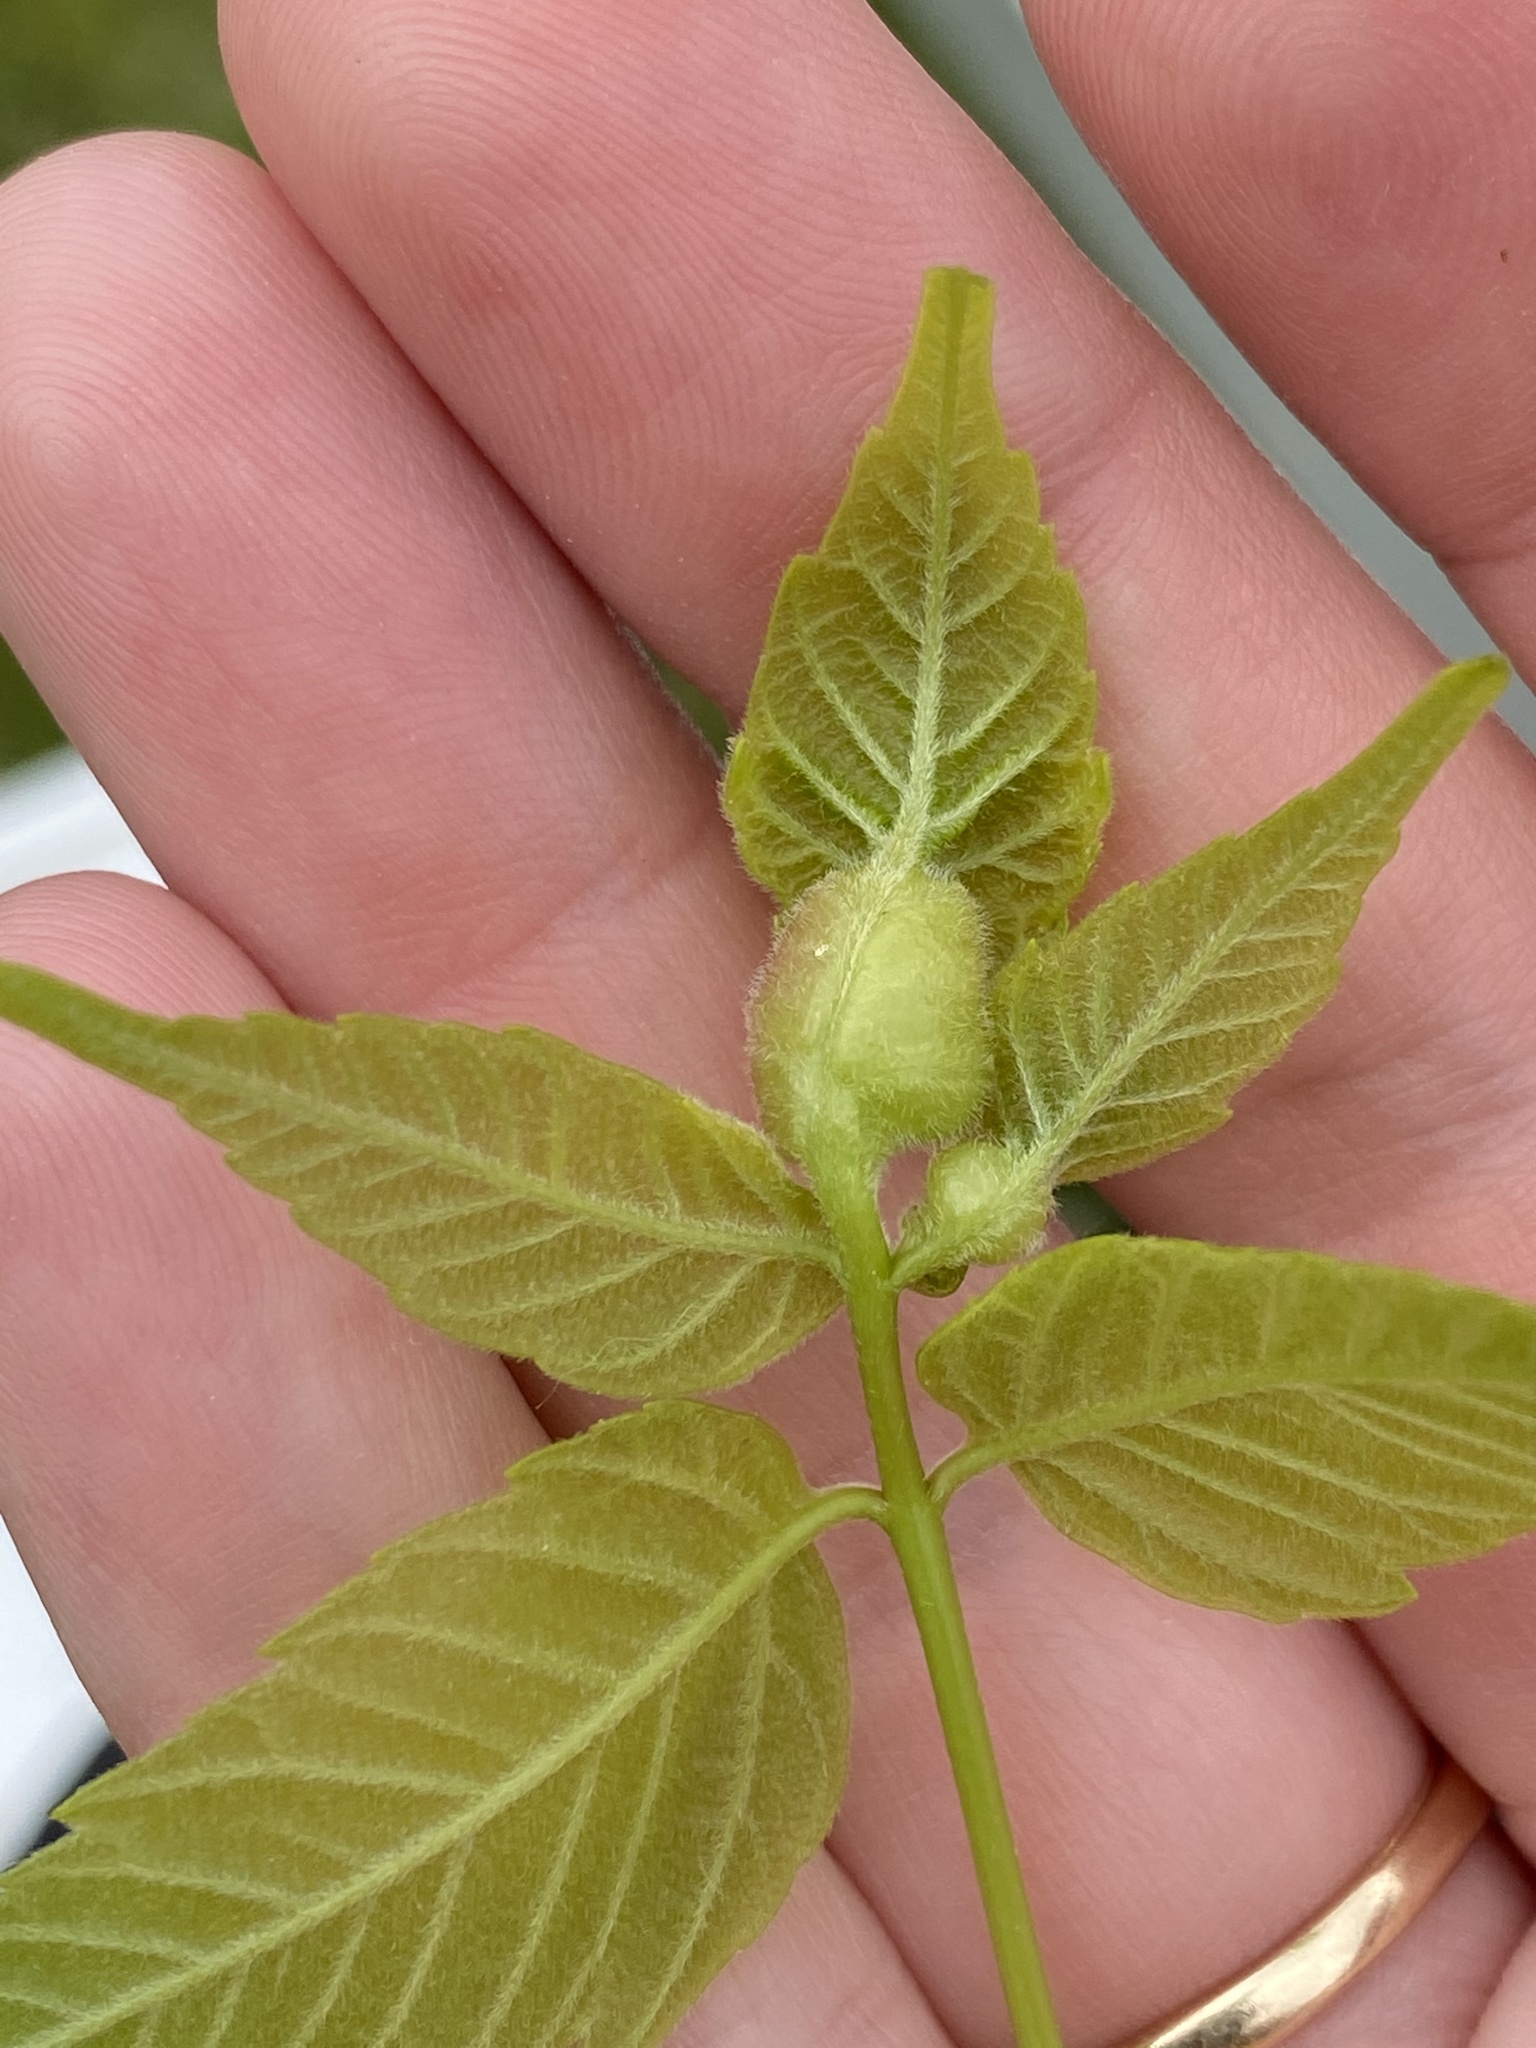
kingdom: Animalia
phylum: Arthropoda
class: Insecta
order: Diptera
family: Cecidomyiidae
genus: Contarinia
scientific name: Contarinia negundinis
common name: Boxelder budgall midge
